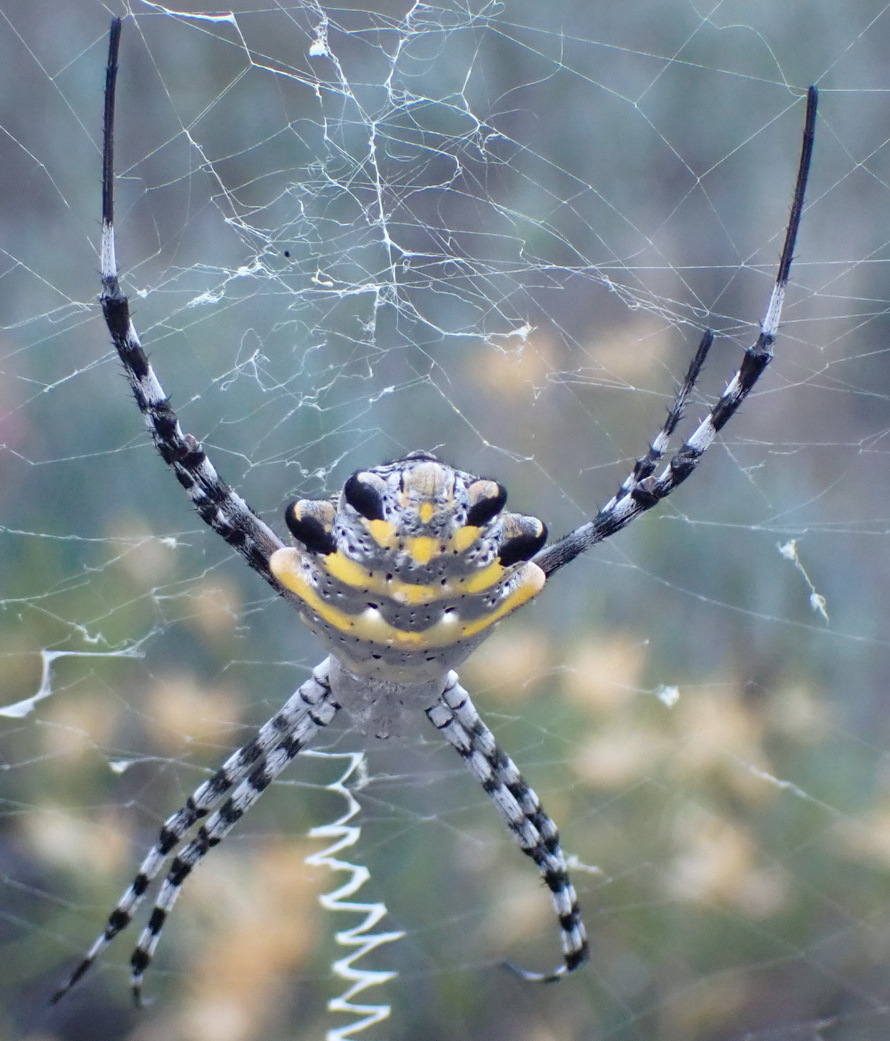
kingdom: Animalia
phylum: Arthropoda
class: Arachnida
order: Araneae
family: Araneidae
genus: Argiope
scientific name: Argiope australis
